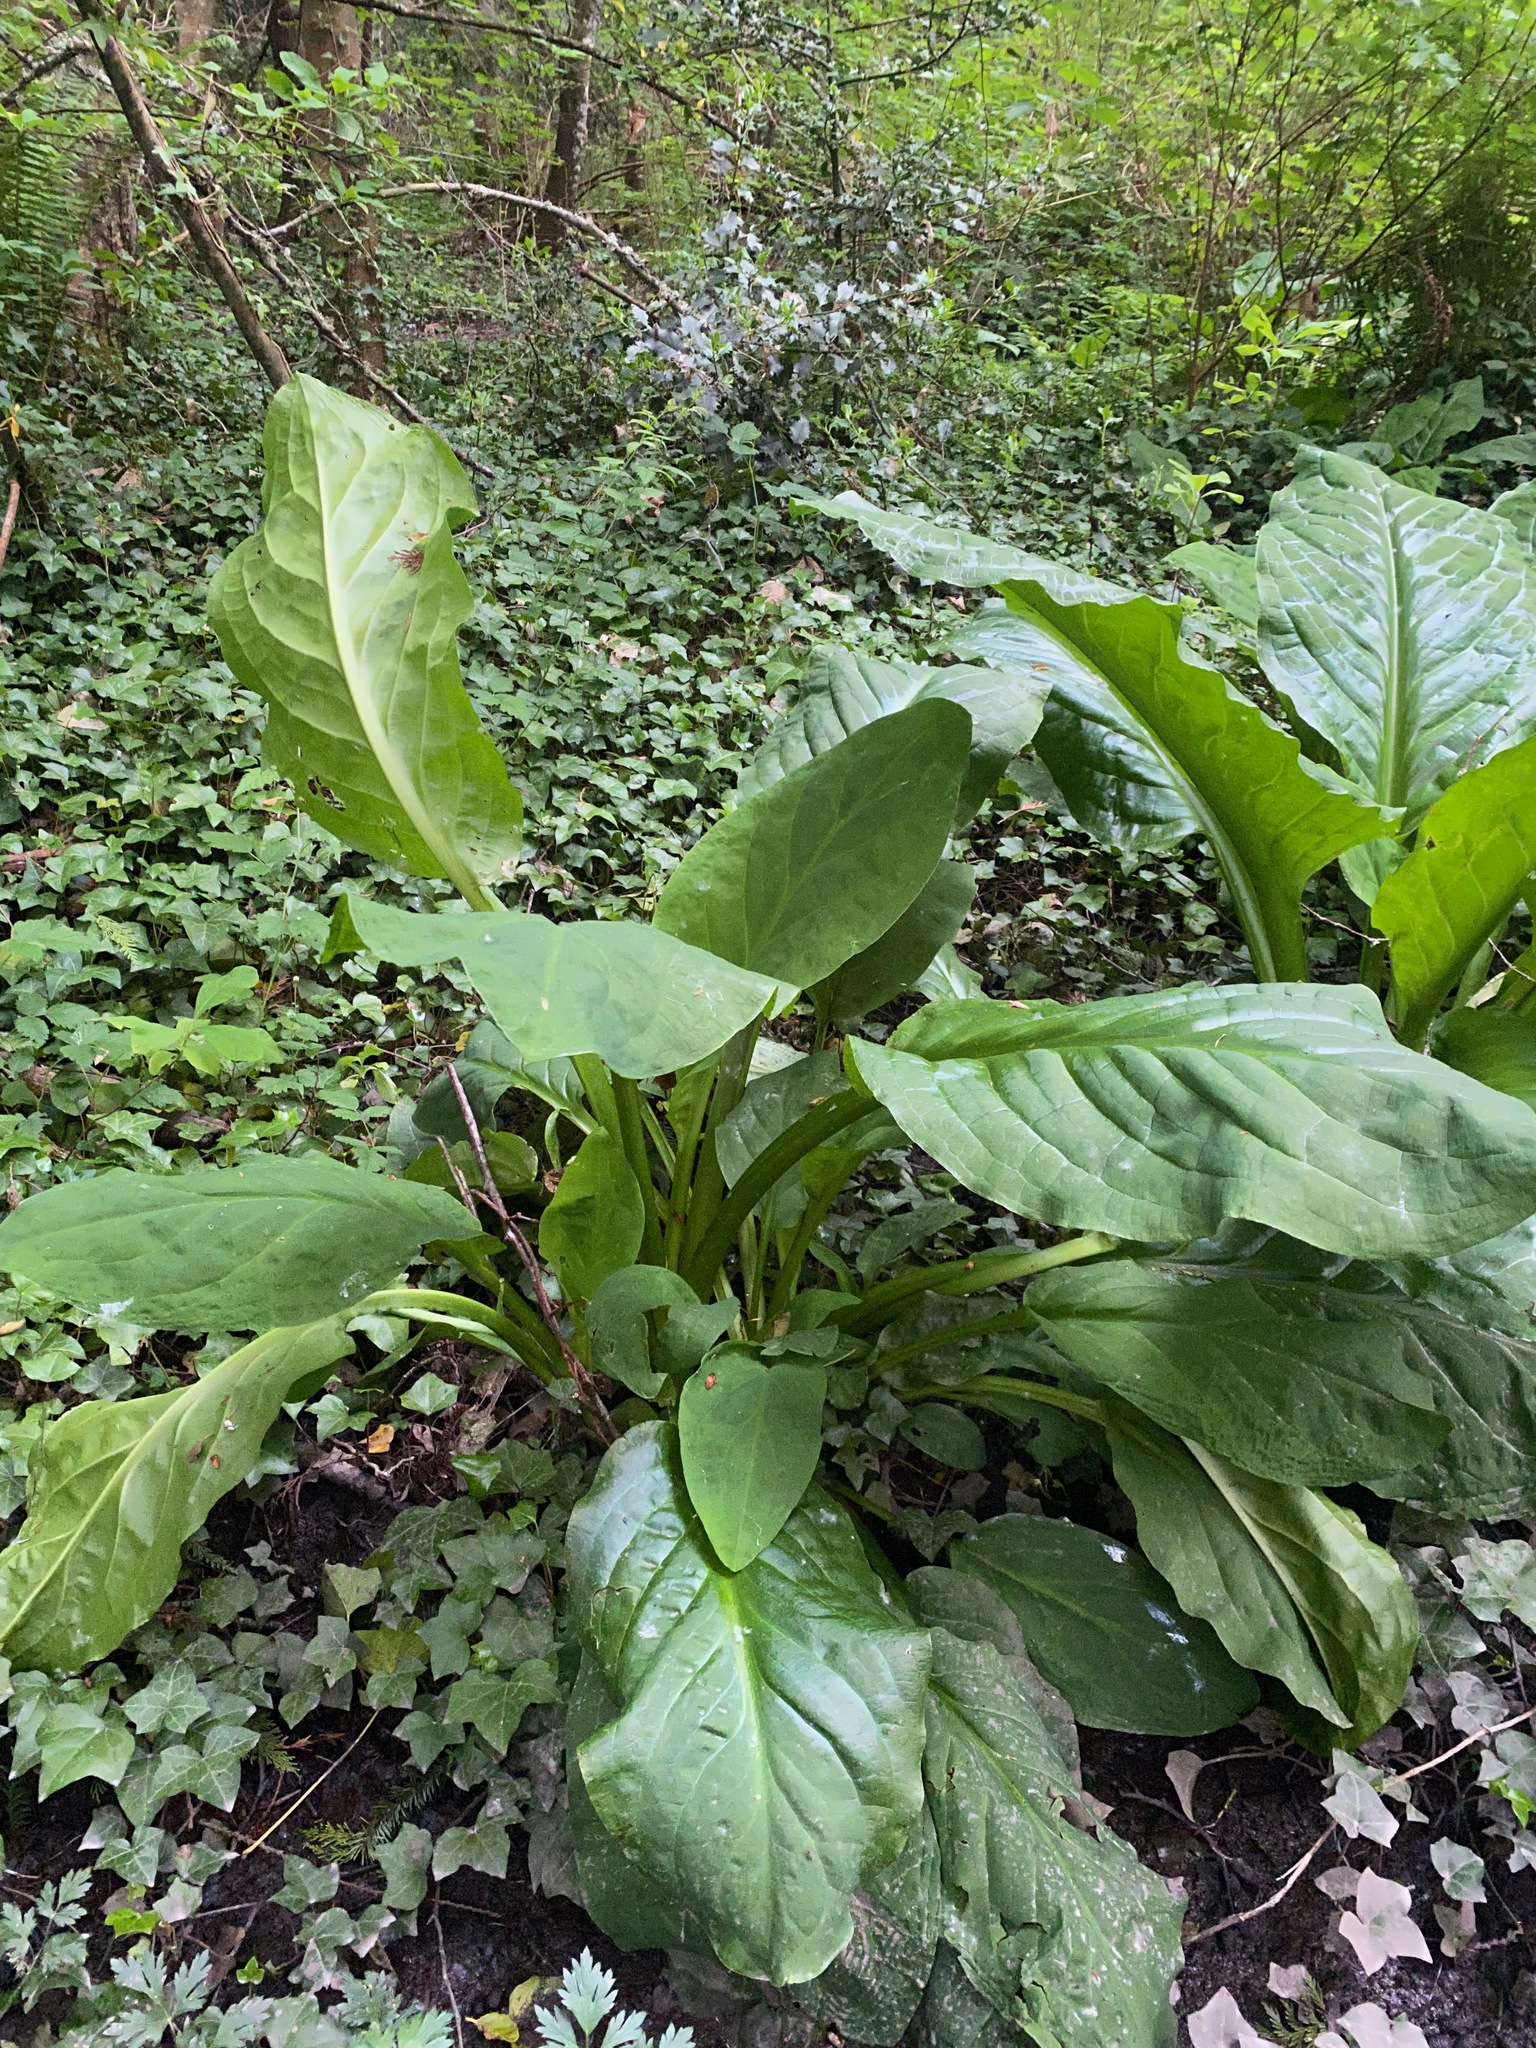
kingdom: Plantae
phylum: Tracheophyta
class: Liliopsida
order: Alismatales
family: Araceae
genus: Lysichiton
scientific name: Lysichiton americanus
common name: American skunk cabbage
